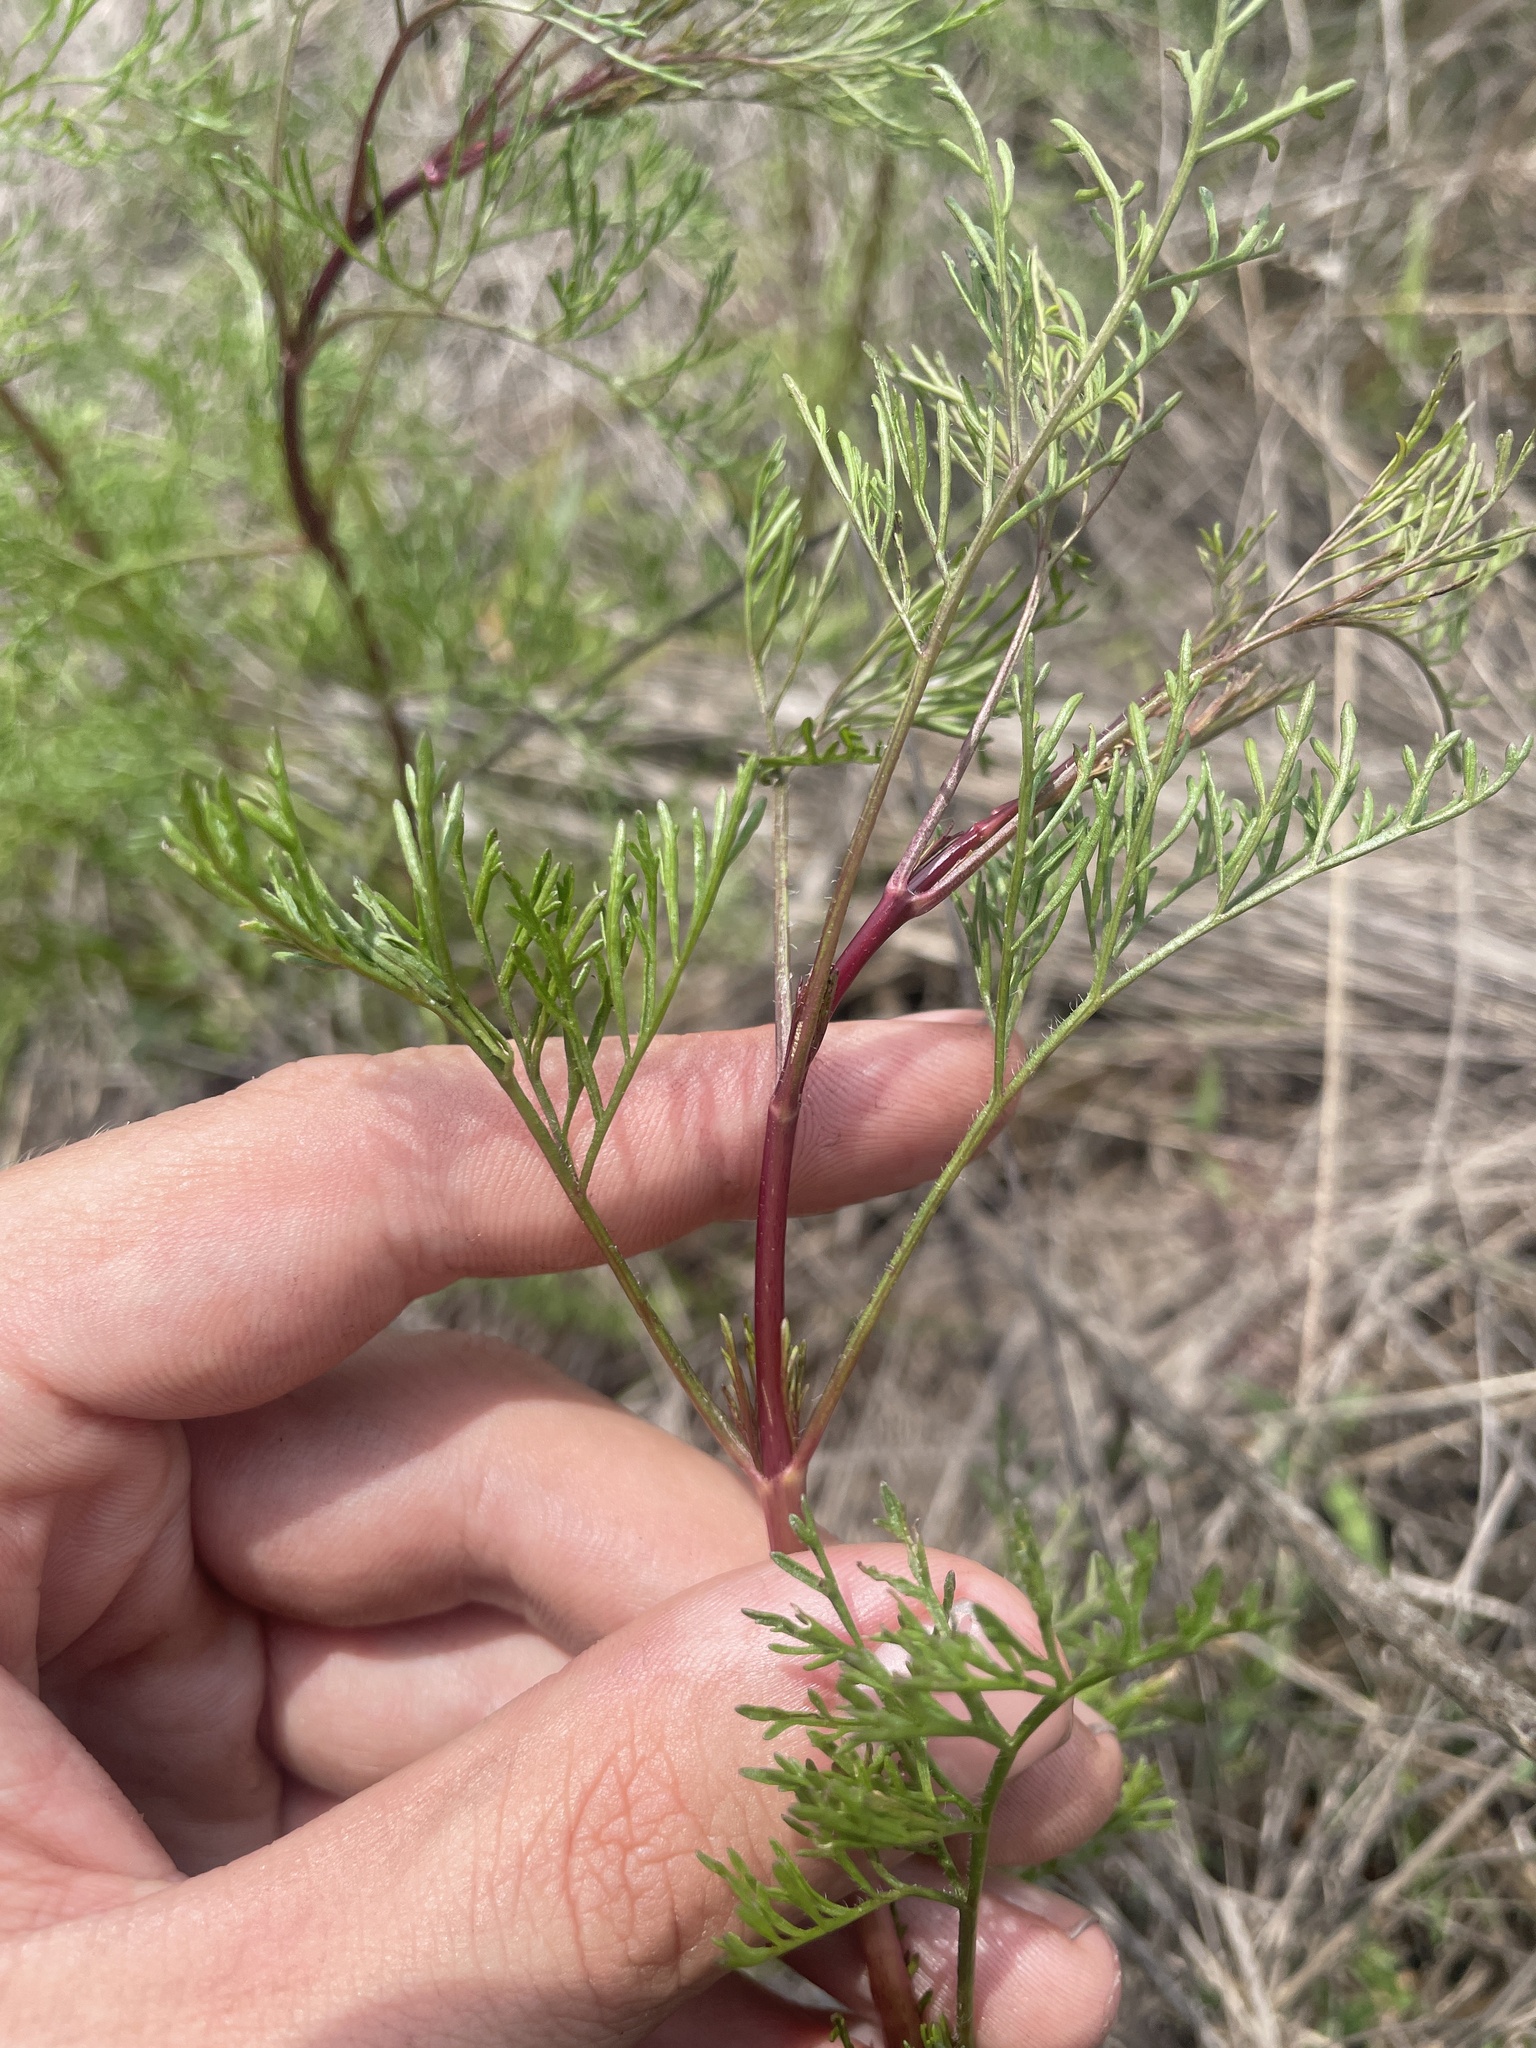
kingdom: Plantae
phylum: Tracheophyta
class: Magnoliopsida
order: Asterales
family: Asteraceae
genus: Eupatorium
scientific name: Eupatorium leptophyllum
